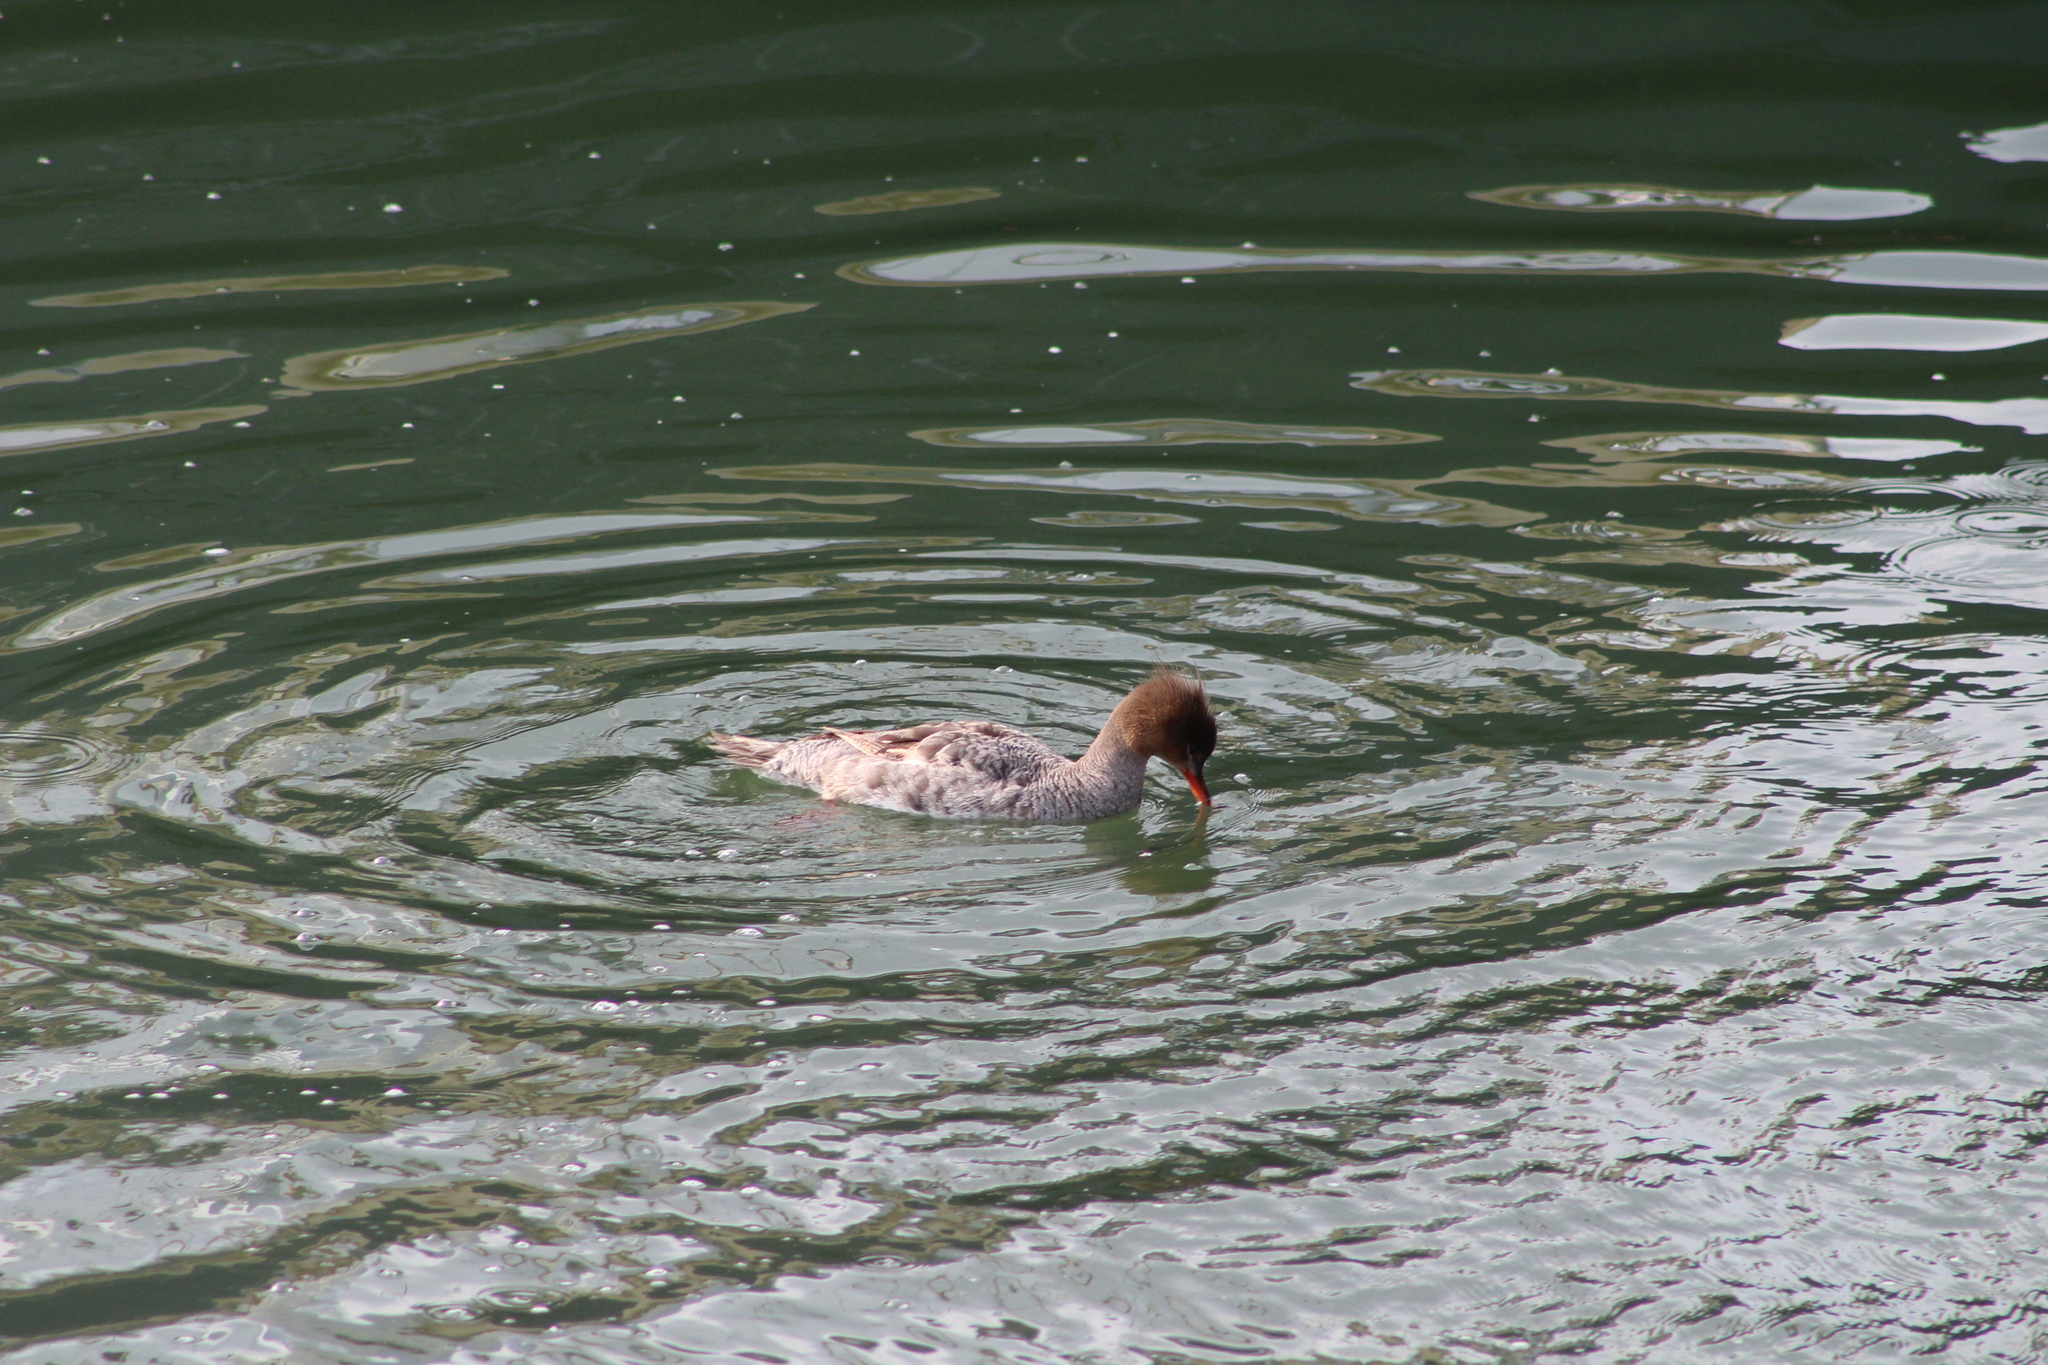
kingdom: Animalia
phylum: Chordata
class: Aves
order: Anseriformes
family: Anatidae
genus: Mergus
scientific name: Mergus serrator
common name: Red-breasted merganser
